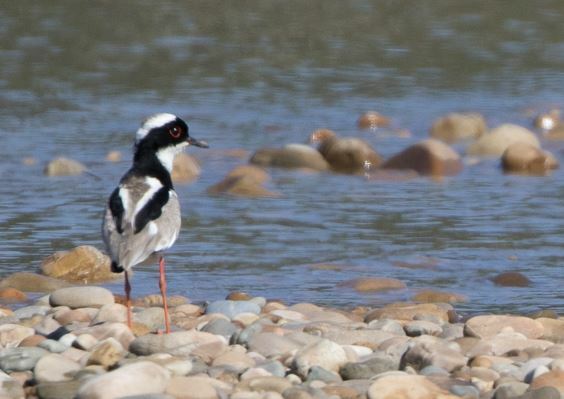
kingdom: Animalia
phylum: Chordata
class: Aves
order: Charadriiformes
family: Charadriidae
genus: Hoploxypterus
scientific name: Hoploxypterus cayanus
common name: Pied plover
